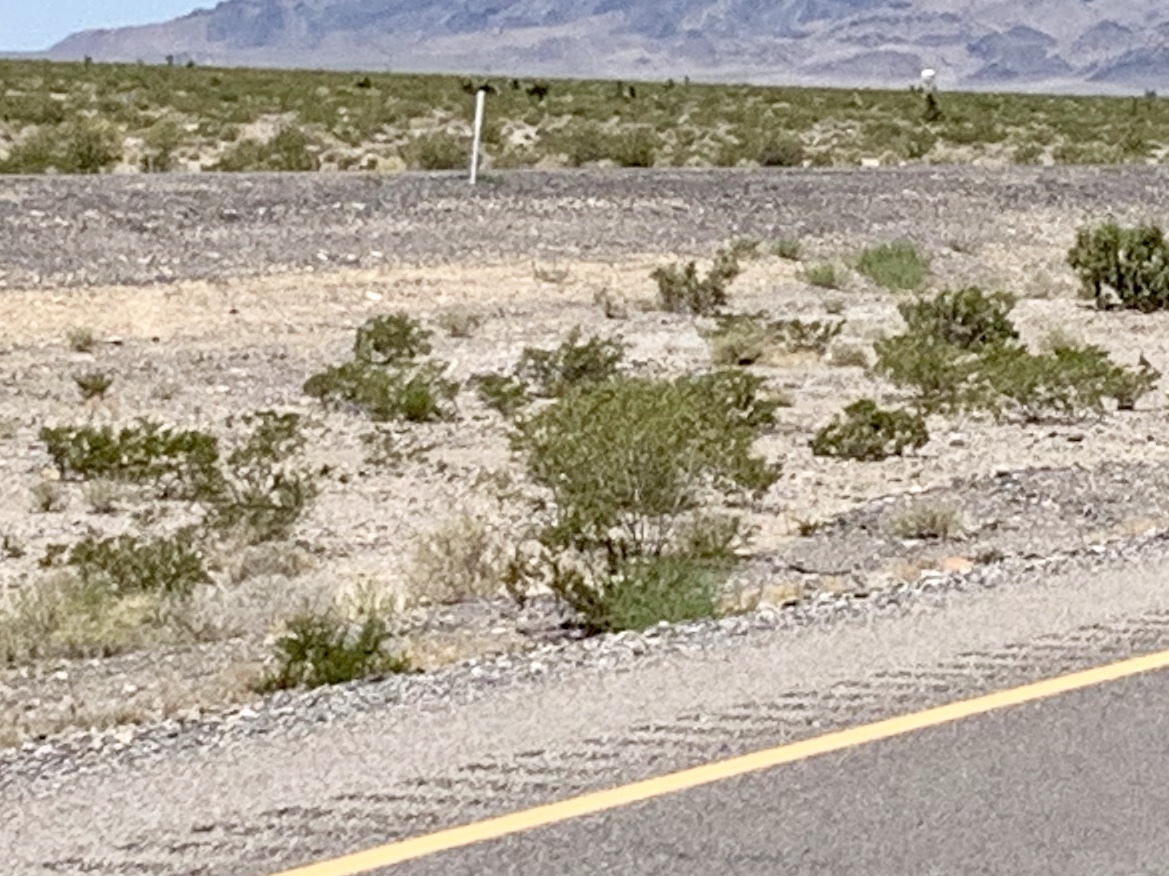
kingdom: Plantae
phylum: Tracheophyta
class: Magnoliopsida
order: Zygophyllales
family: Zygophyllaceae
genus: Larrea
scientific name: Larrea tridentata
